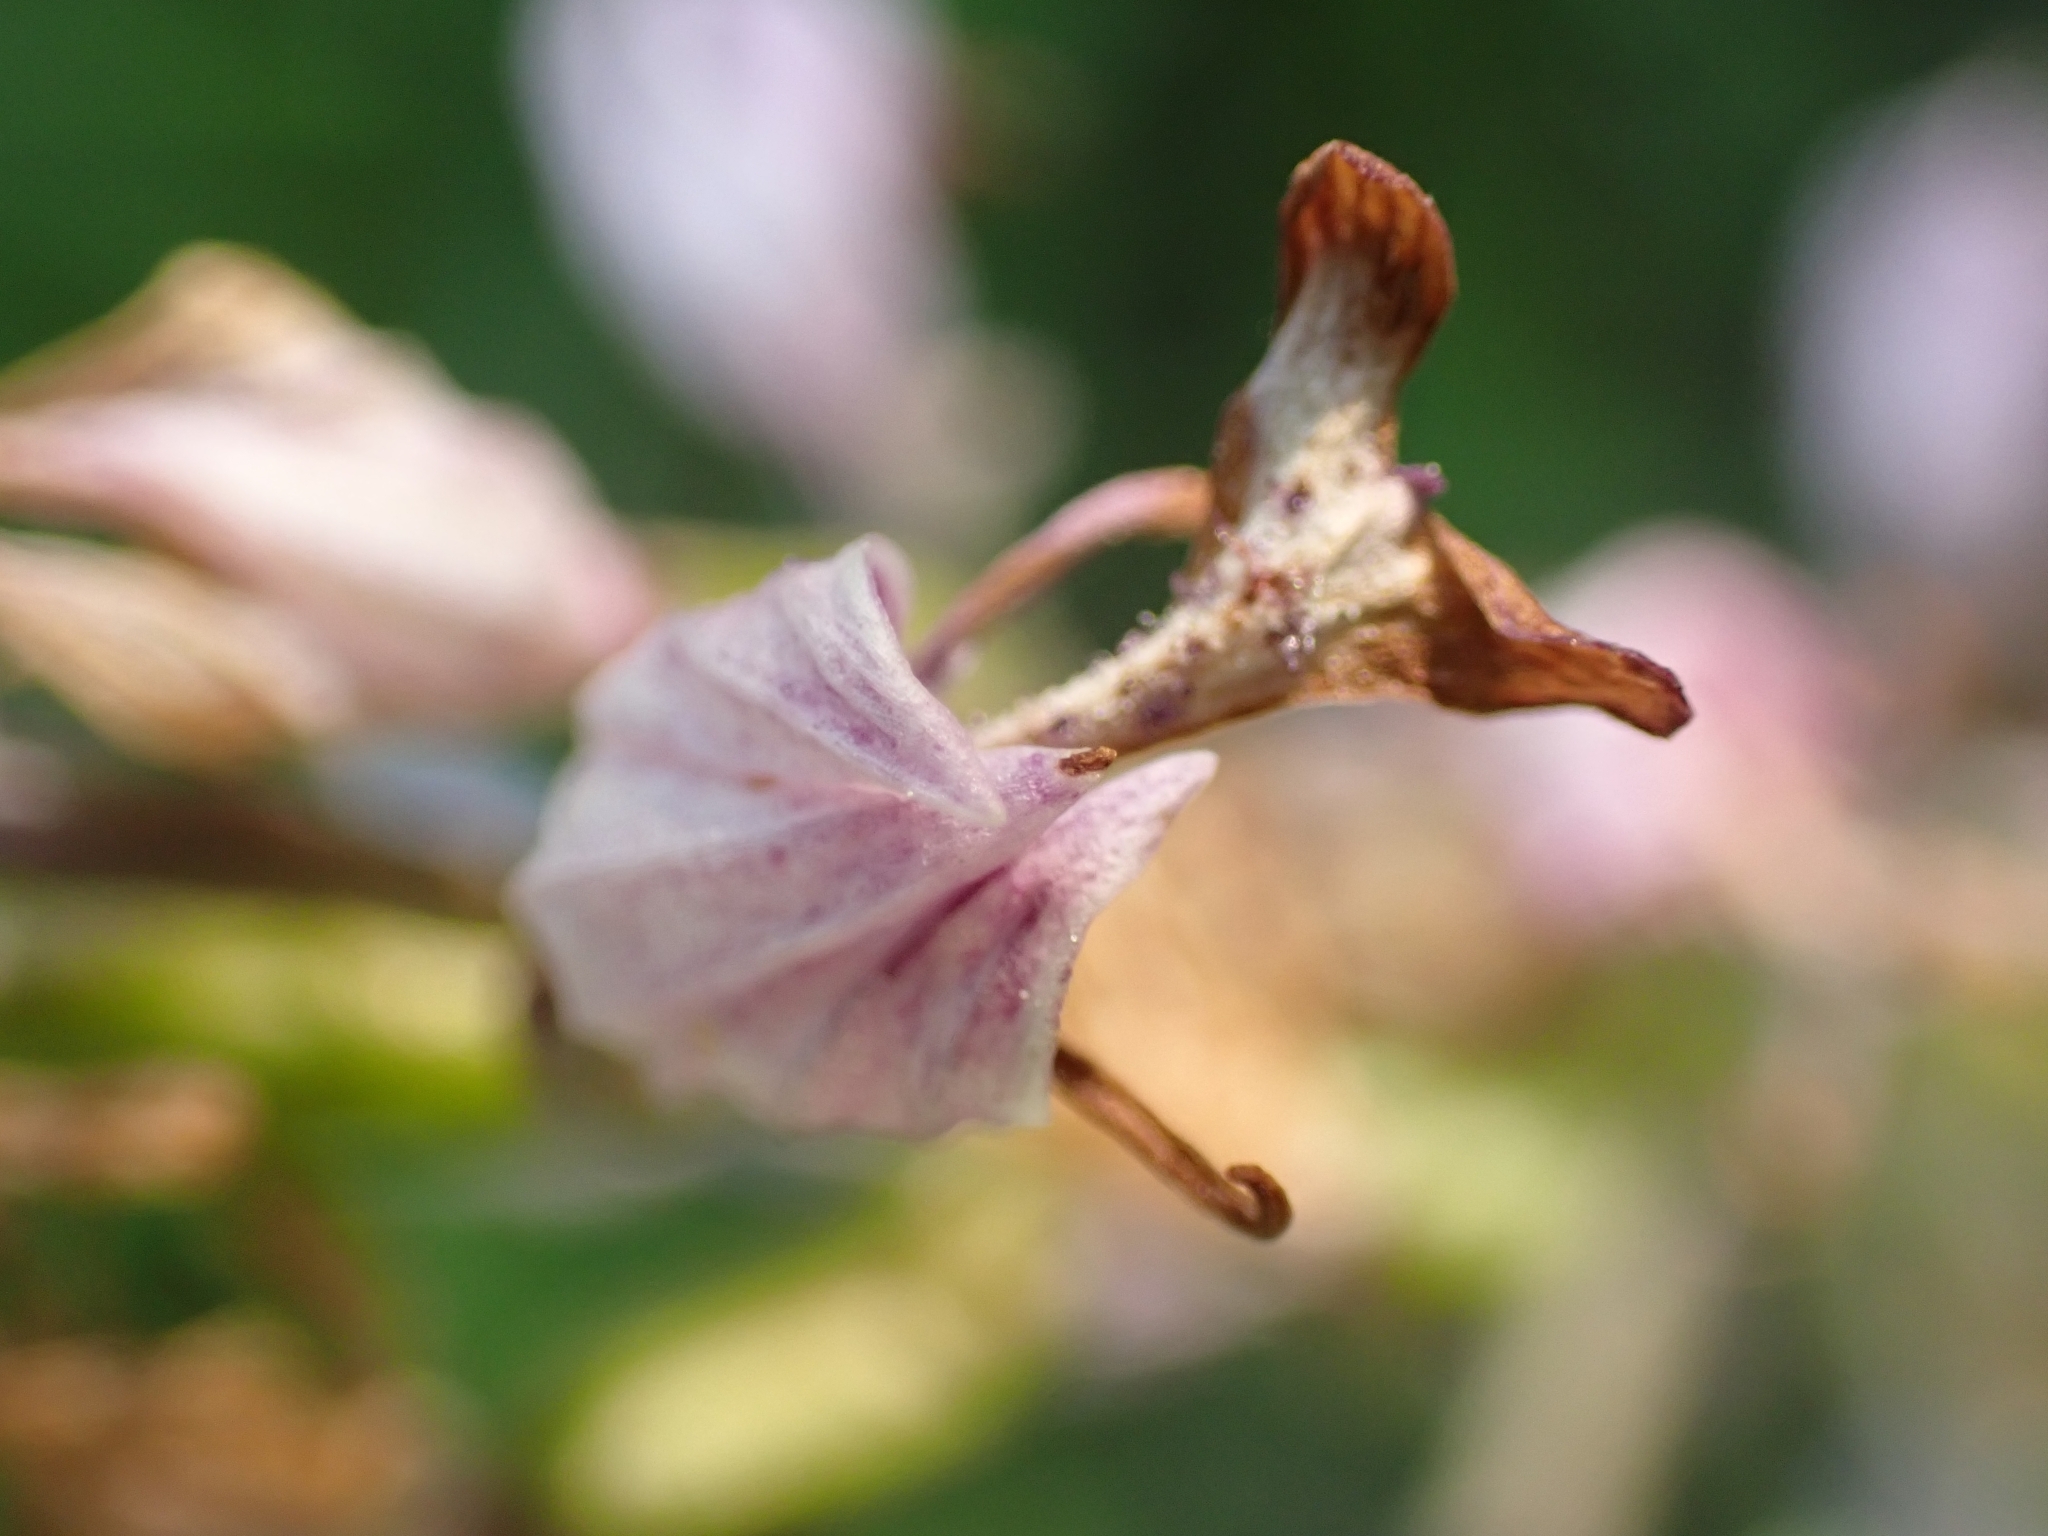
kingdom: Plantae
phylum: Tracheophyta
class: Liliopsida
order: Asparagales
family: Orchidaceae
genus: Orchis
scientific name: Orchis militaris
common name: Military orchid
